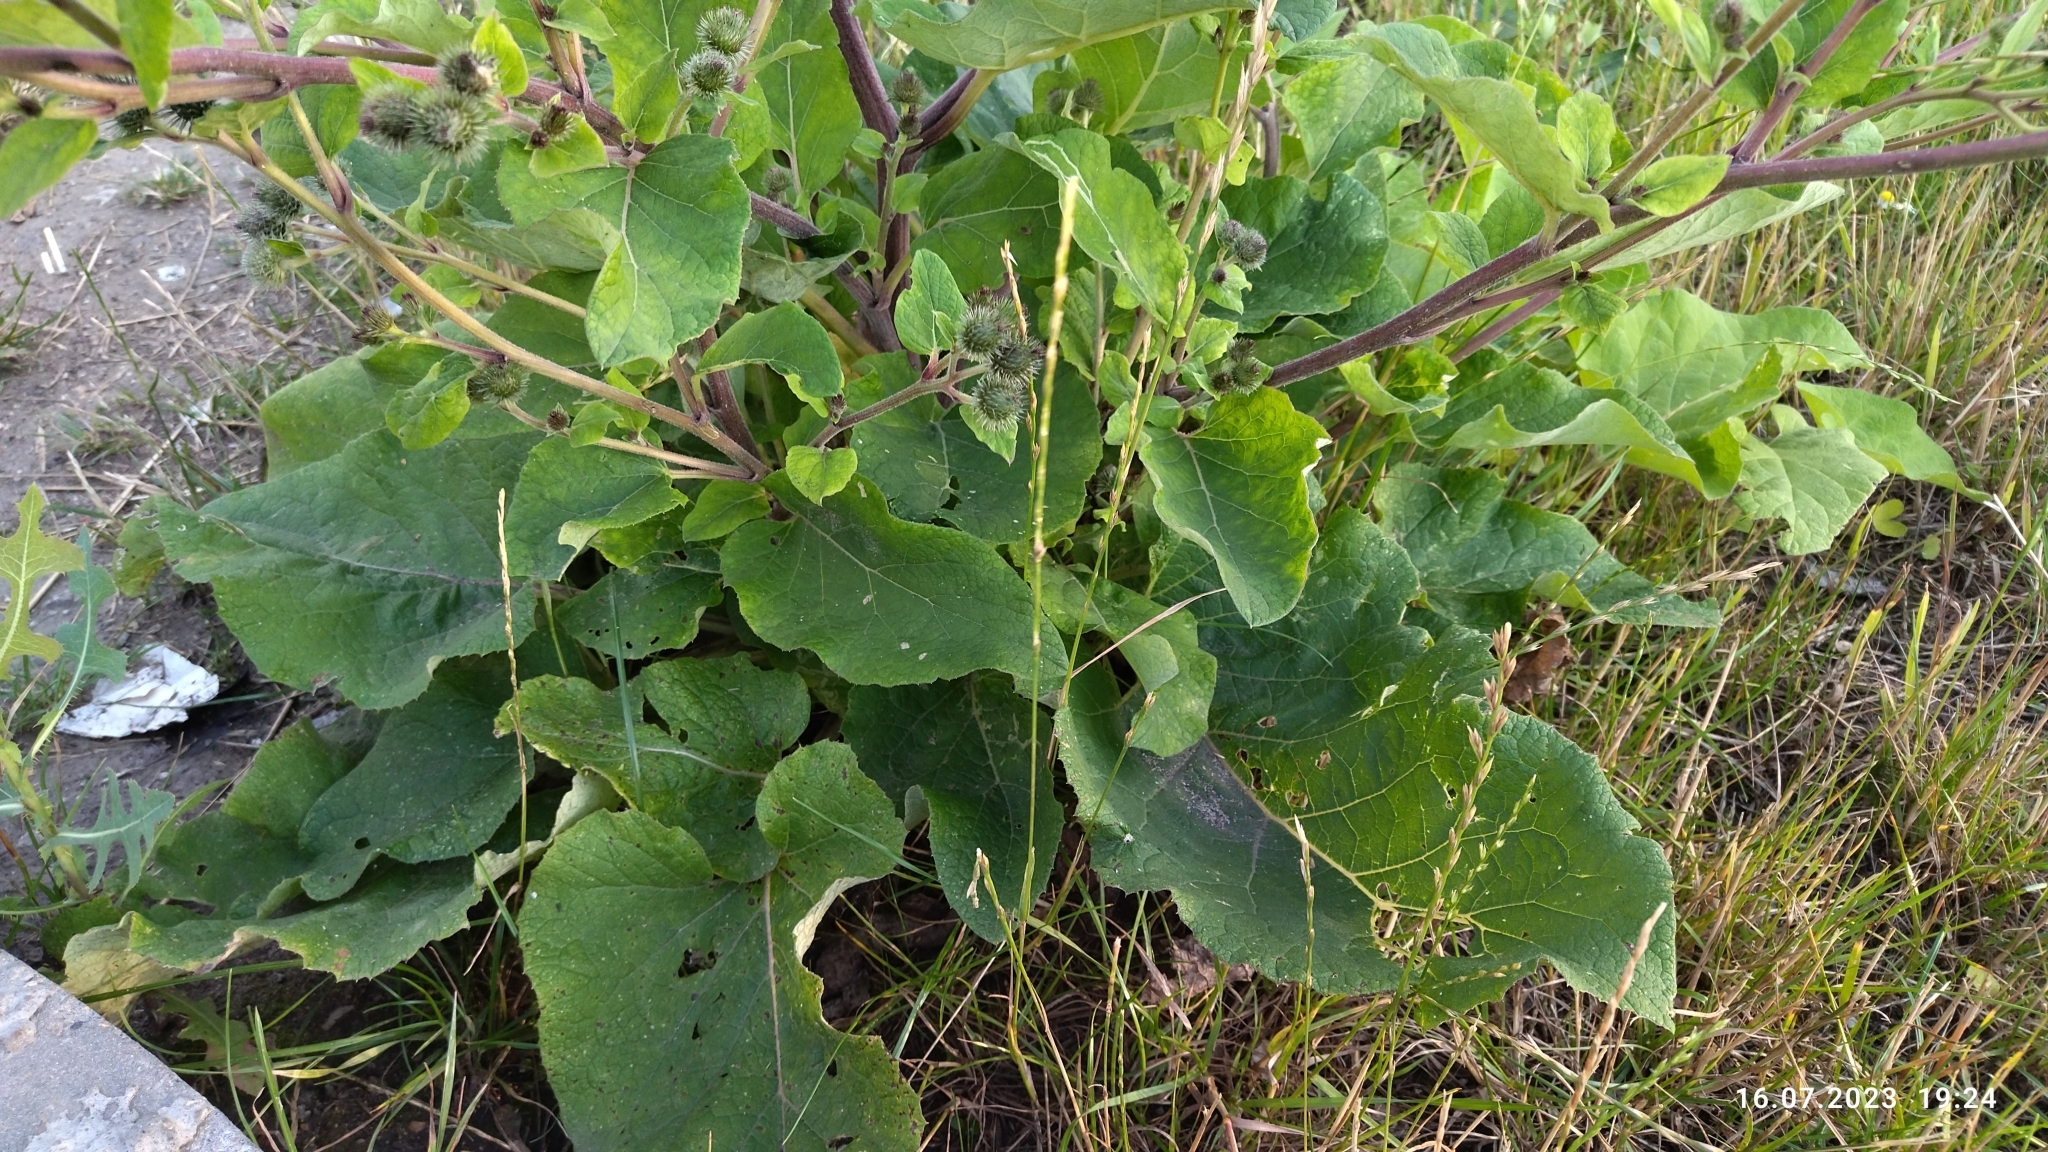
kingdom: Plantae
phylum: Tracheophyta
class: Magnoliopsida
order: Asterales
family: Asteraceae
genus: Arctium
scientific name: Arctium tomentosum
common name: Woolly burdock
